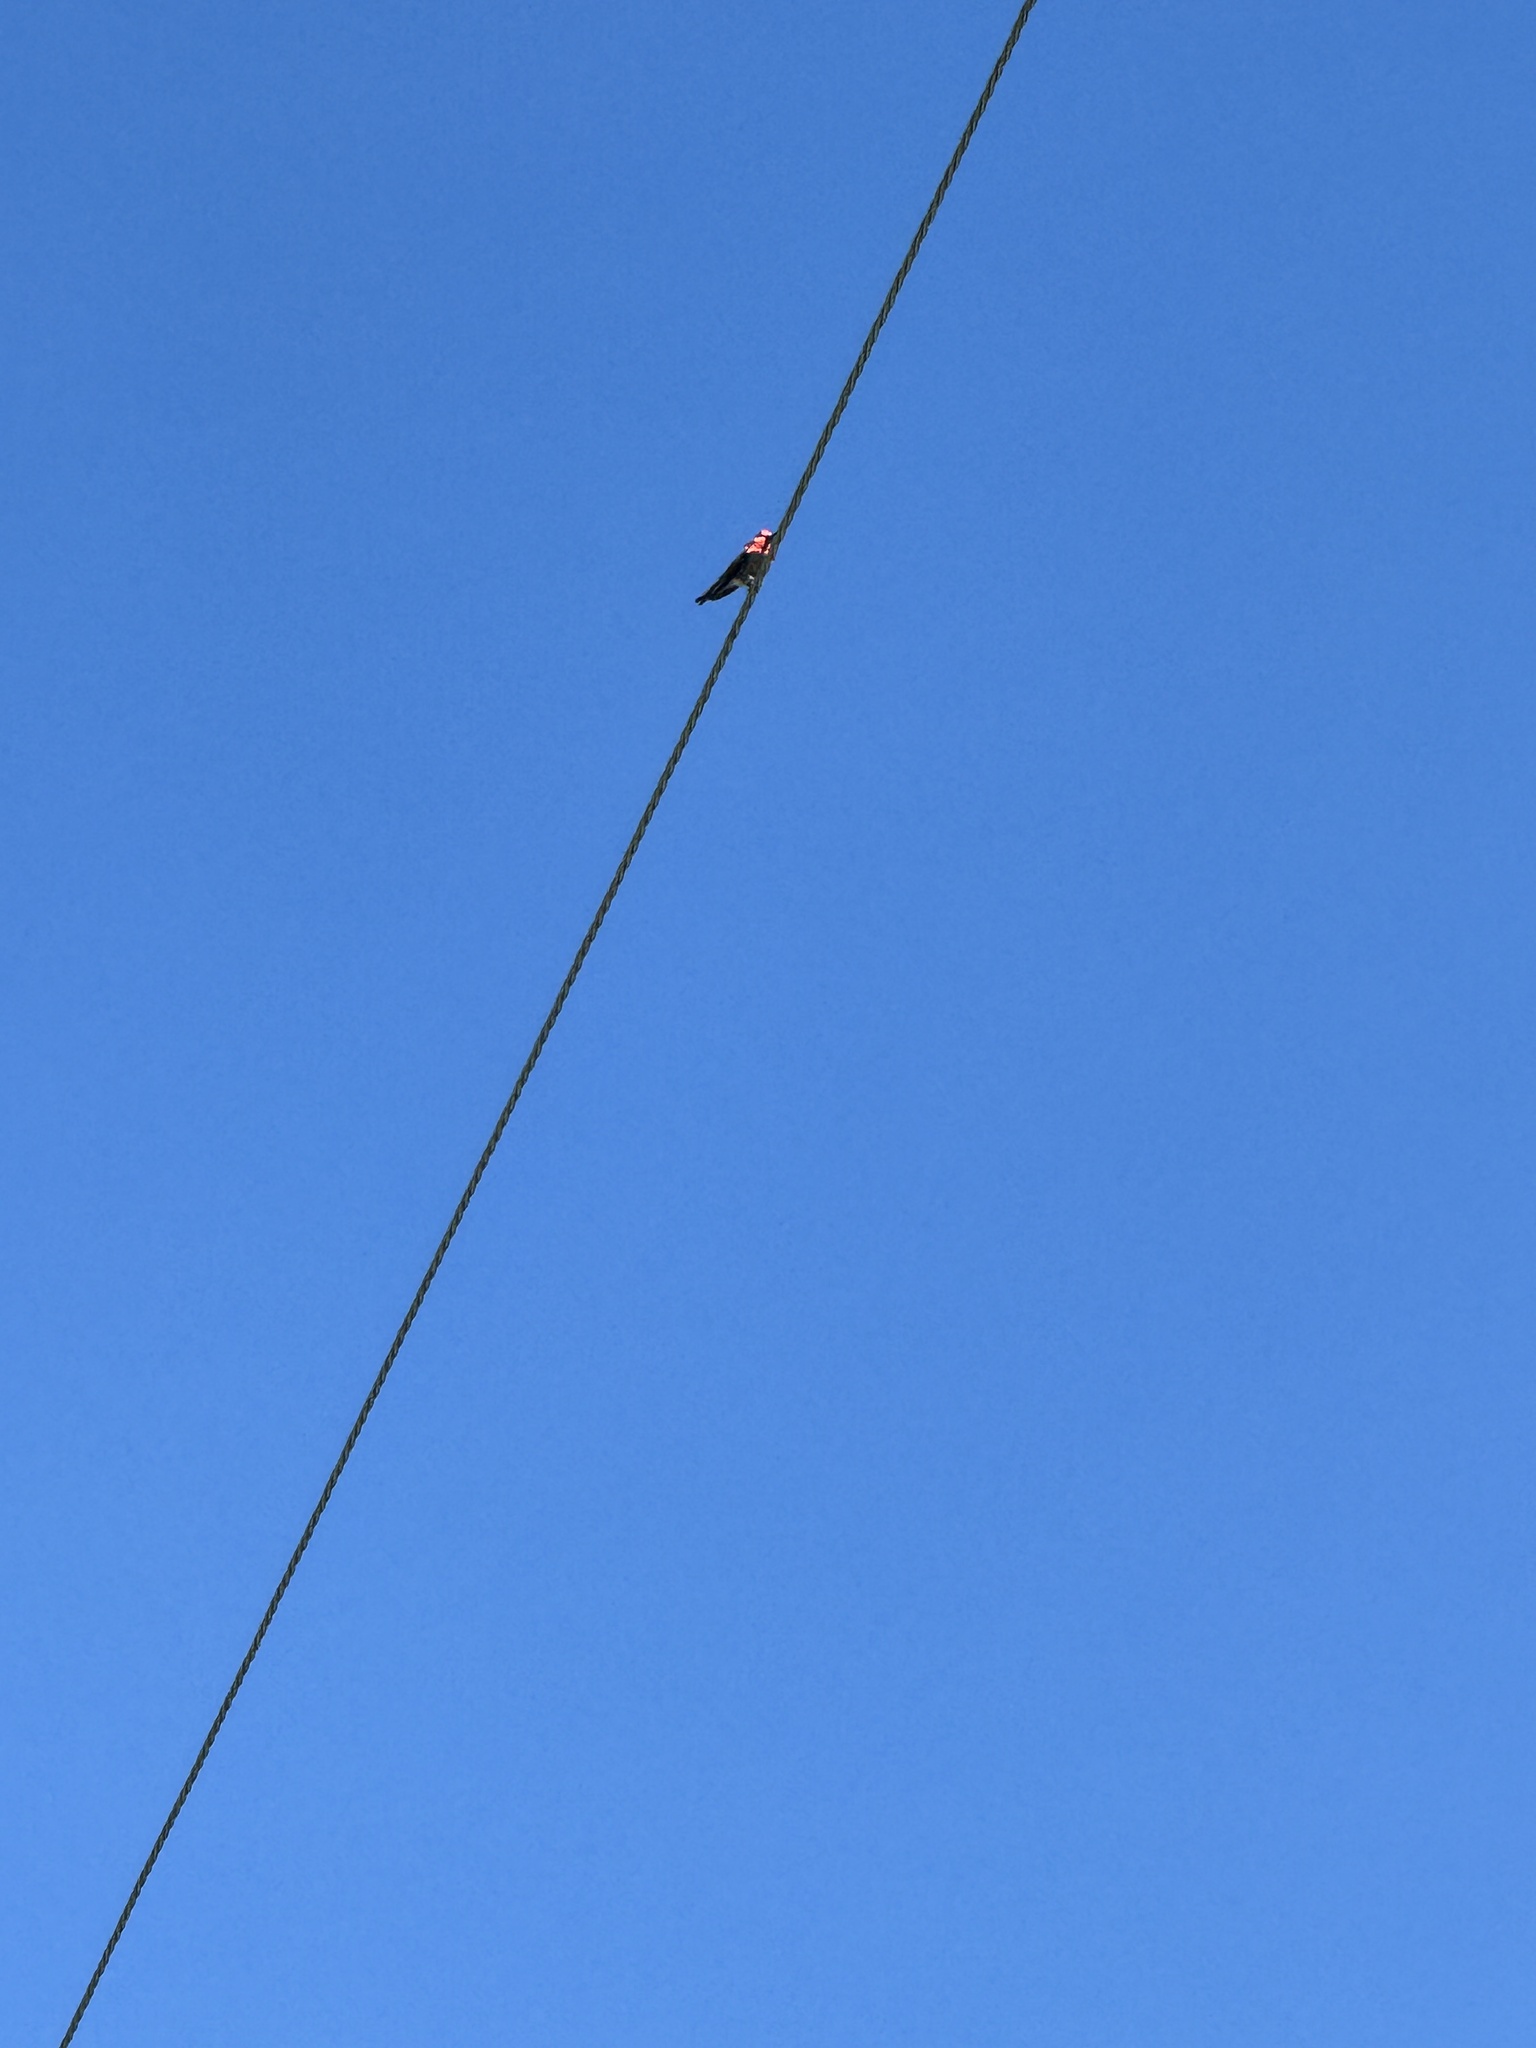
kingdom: Animalia
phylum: Chordata
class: Aves
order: Apodiformes
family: Trochilidae
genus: Calypte
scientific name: Calypte anna
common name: Anna's hummingbird
